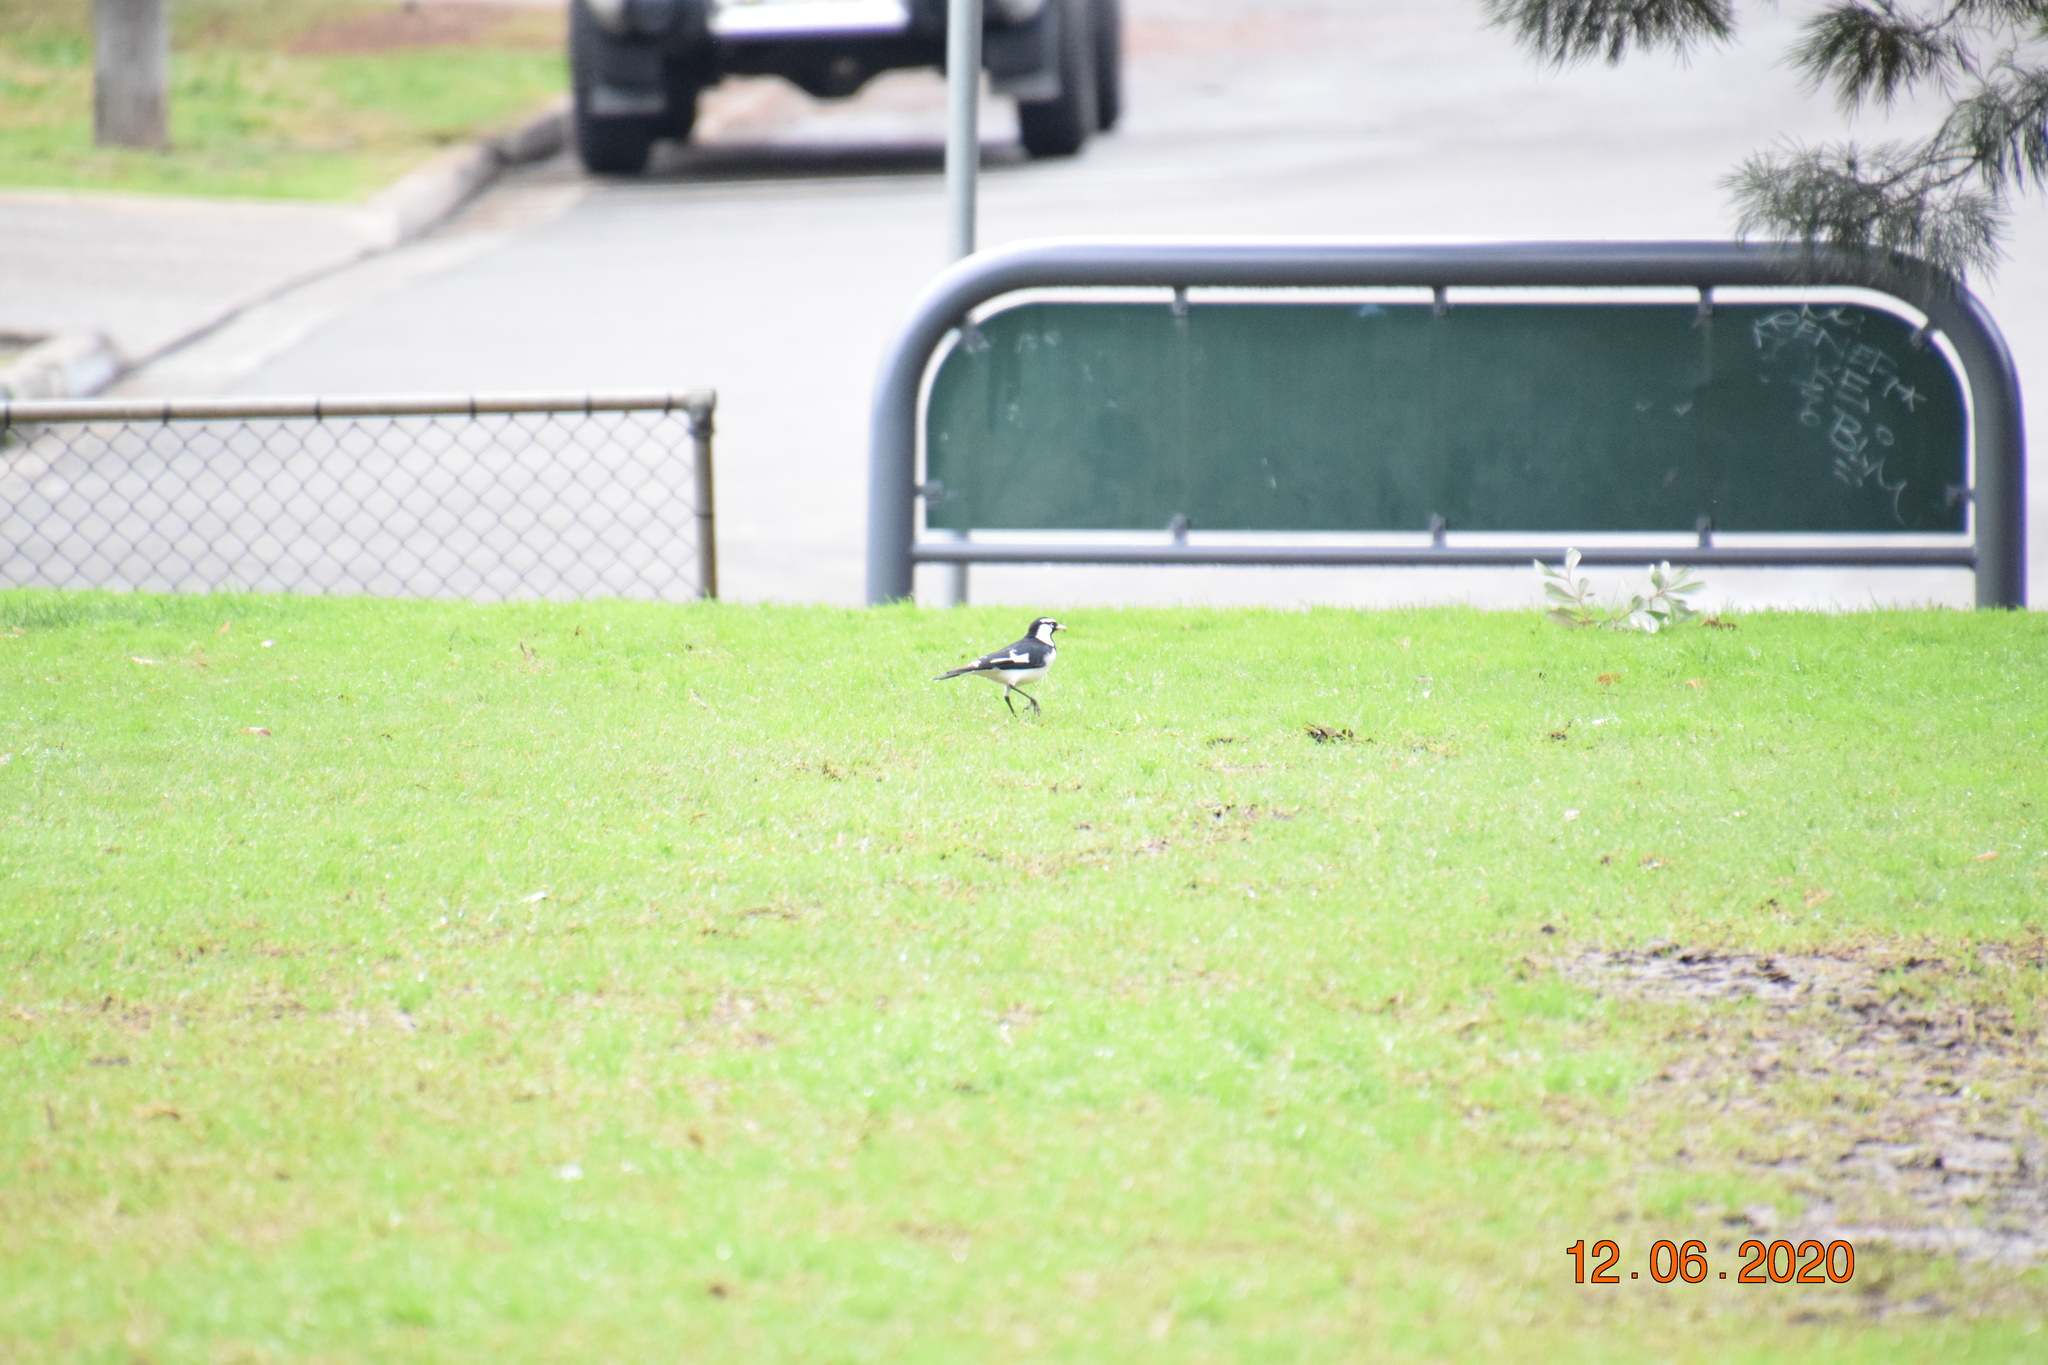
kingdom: Animalia
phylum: Chordata
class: Aves
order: Passeriformes
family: Monarchidae
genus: Grallina
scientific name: Grallina cyanoleuca
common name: Magpie-lark
